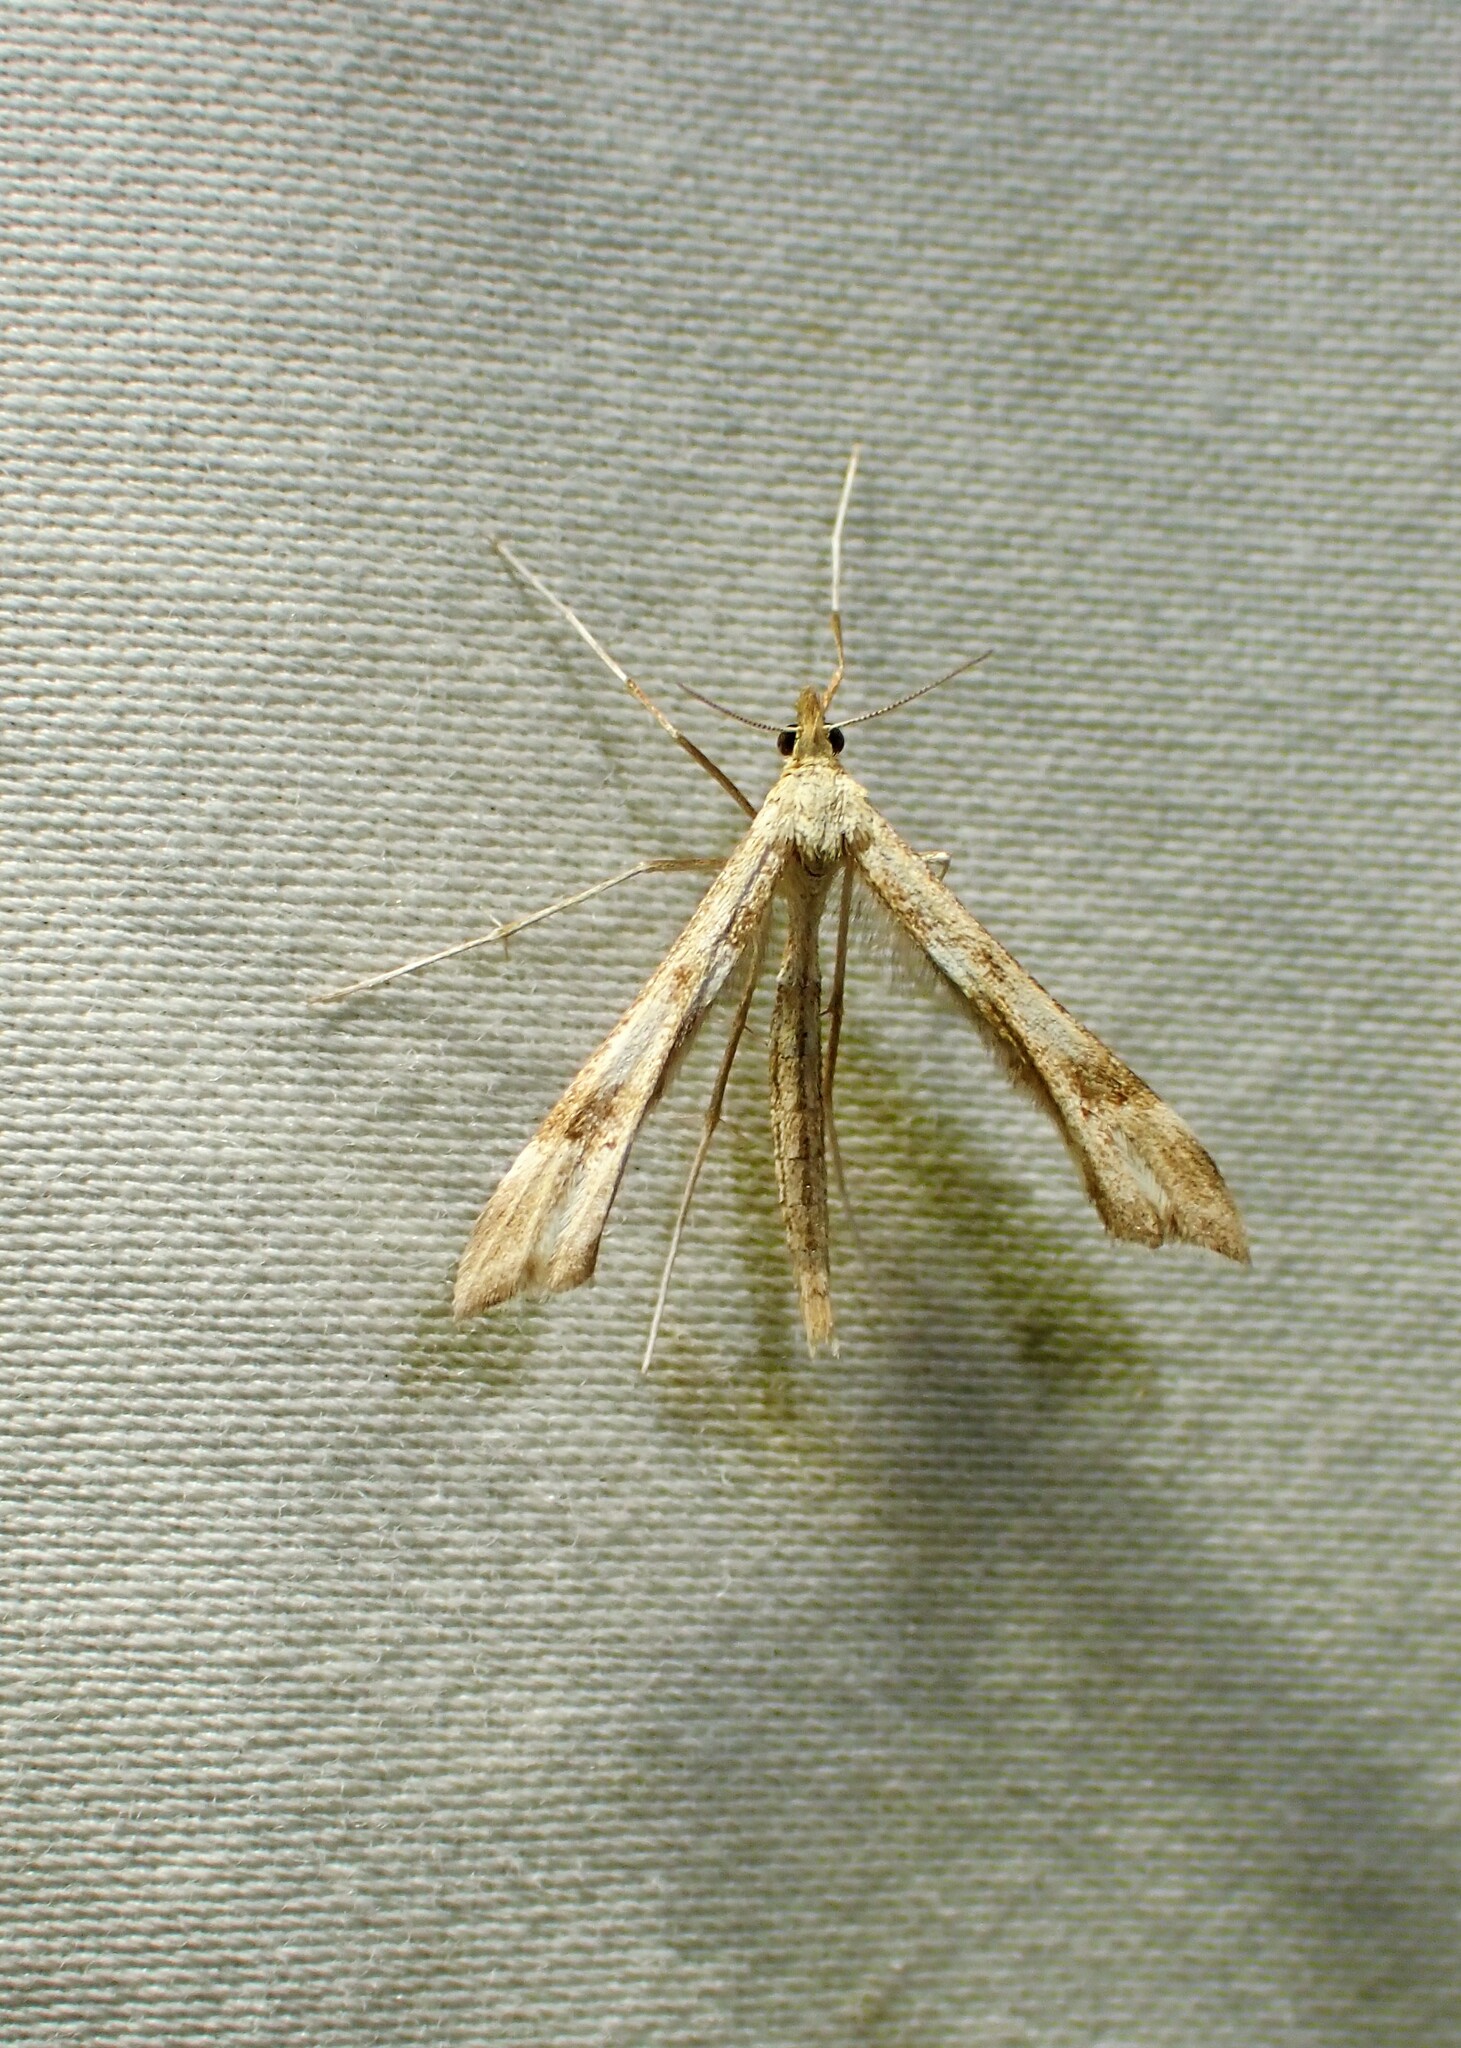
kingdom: Animalia
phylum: Arthropoda
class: Insecta
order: Lepidoptera
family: Pterophoridae
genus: Gillmeria
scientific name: Gillmeria pallidactyla
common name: Yarrow plume
